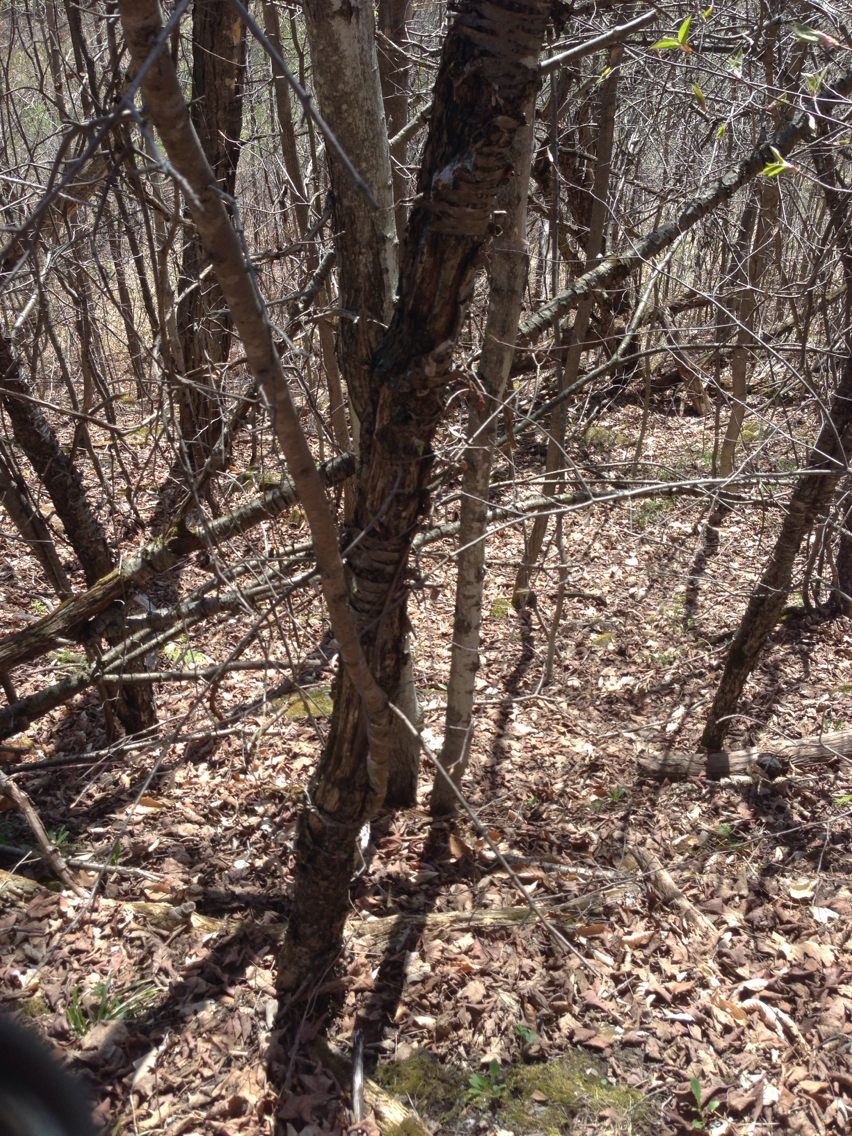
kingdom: Plantae
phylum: Tracheophyta
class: Magnoliopsida
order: Rosales
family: Rhamnaceae
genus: Rhamnus
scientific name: Rhamnus cathartica
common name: Common buckthorn
